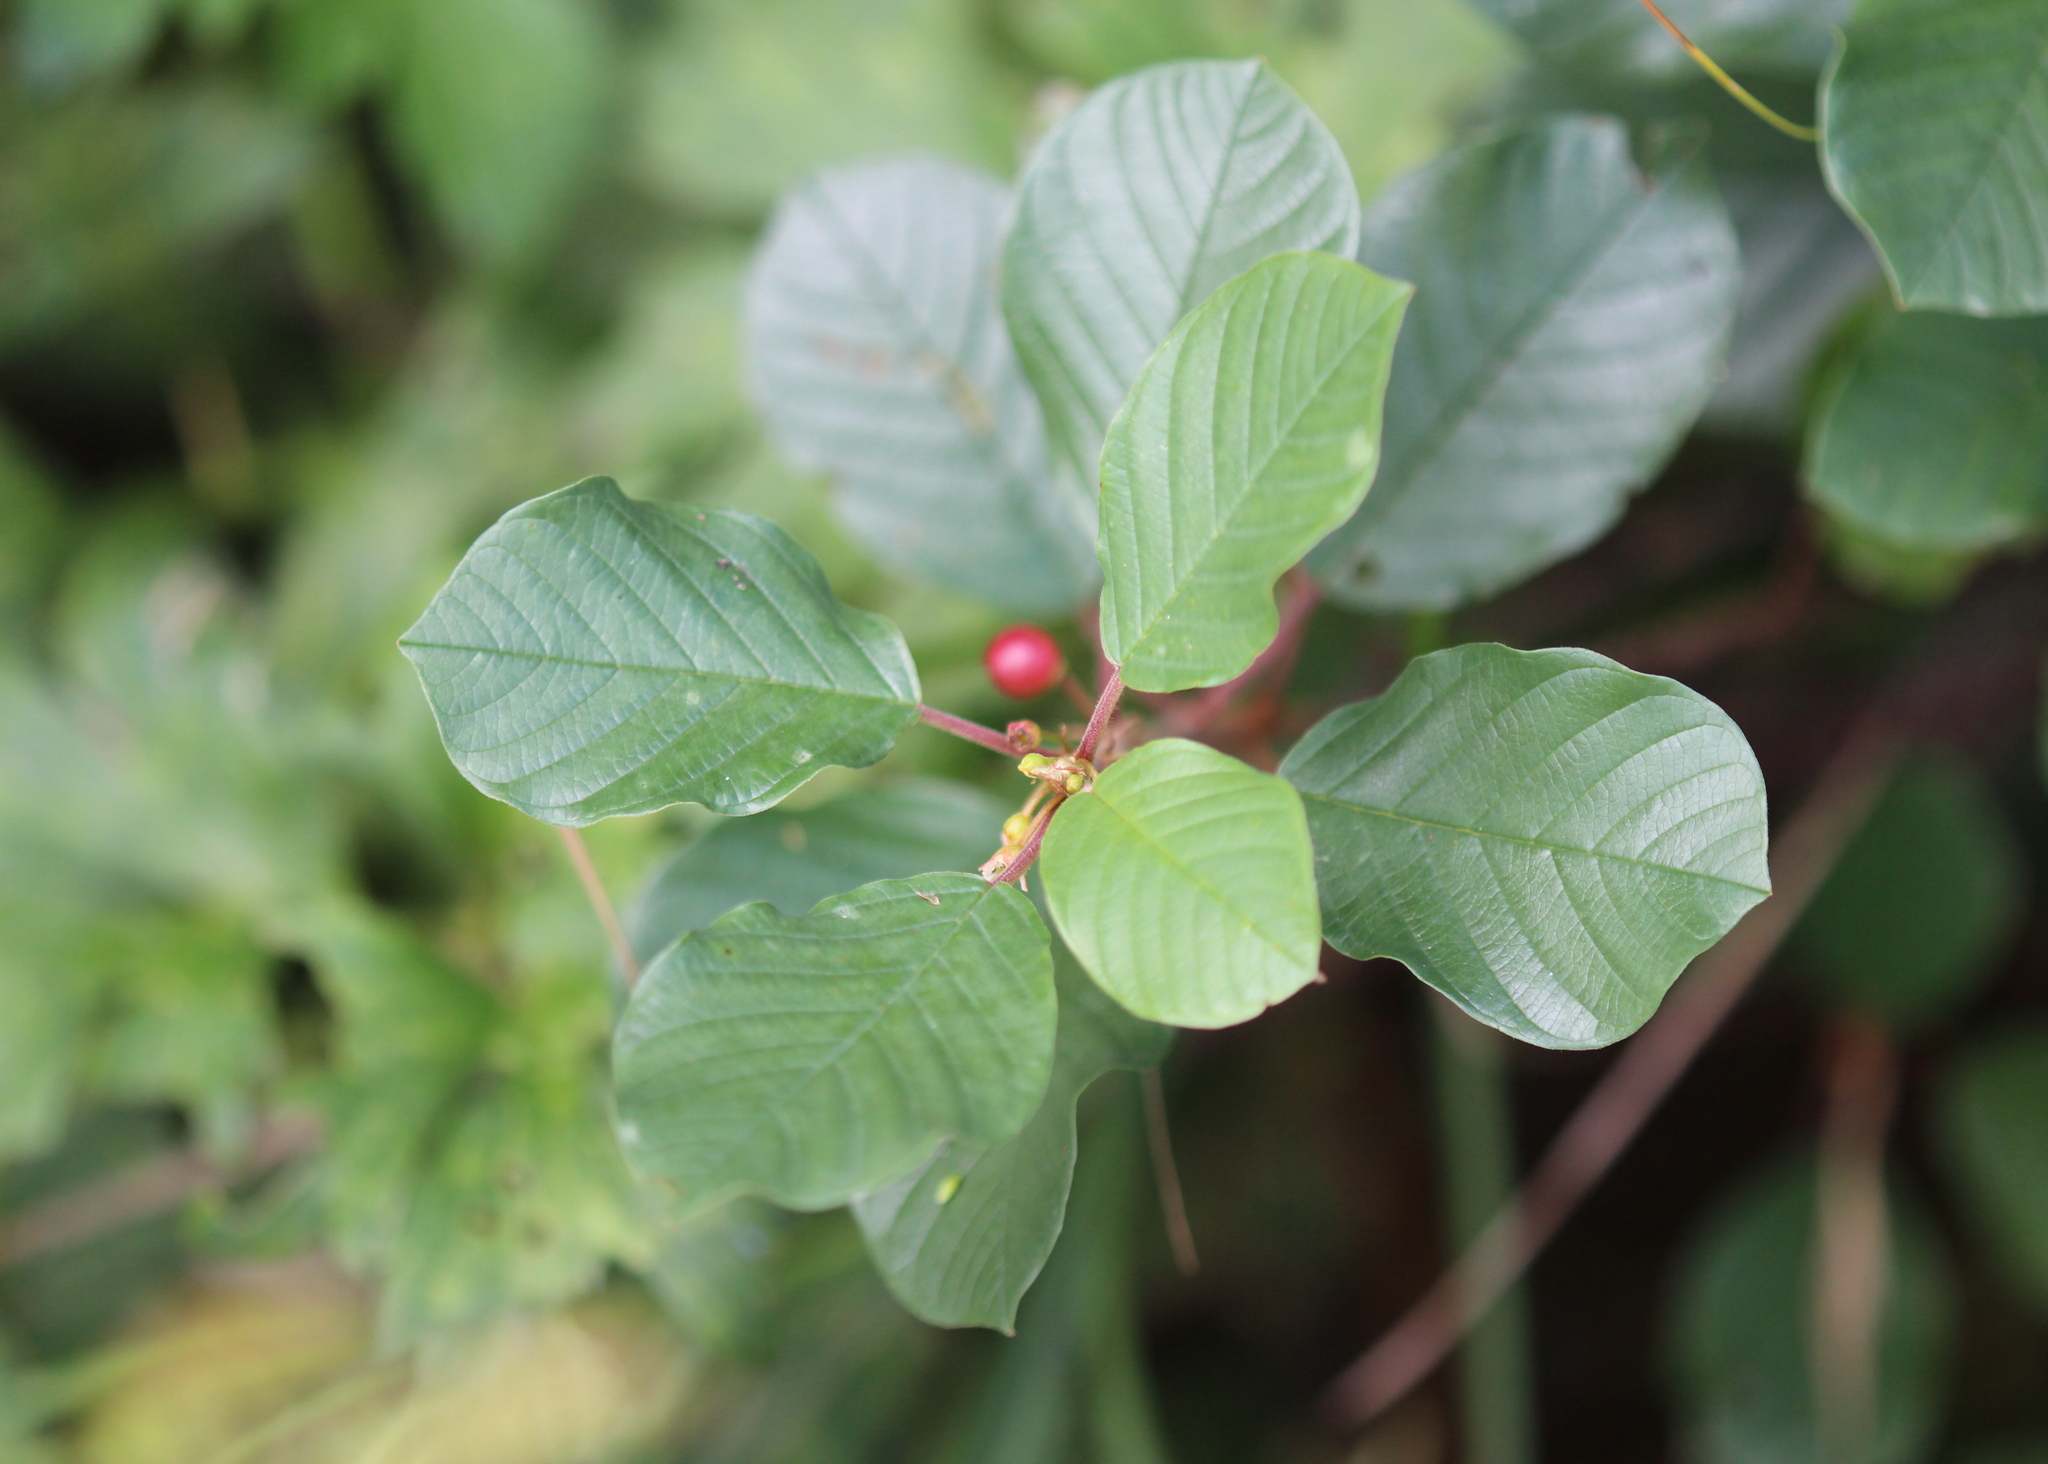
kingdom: Plantae
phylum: Tracheophyta
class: Magnoliopsida
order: Rosales
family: Rhamnaceae
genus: Frangula
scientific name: Frangula alnus
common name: Alder buckthorn
